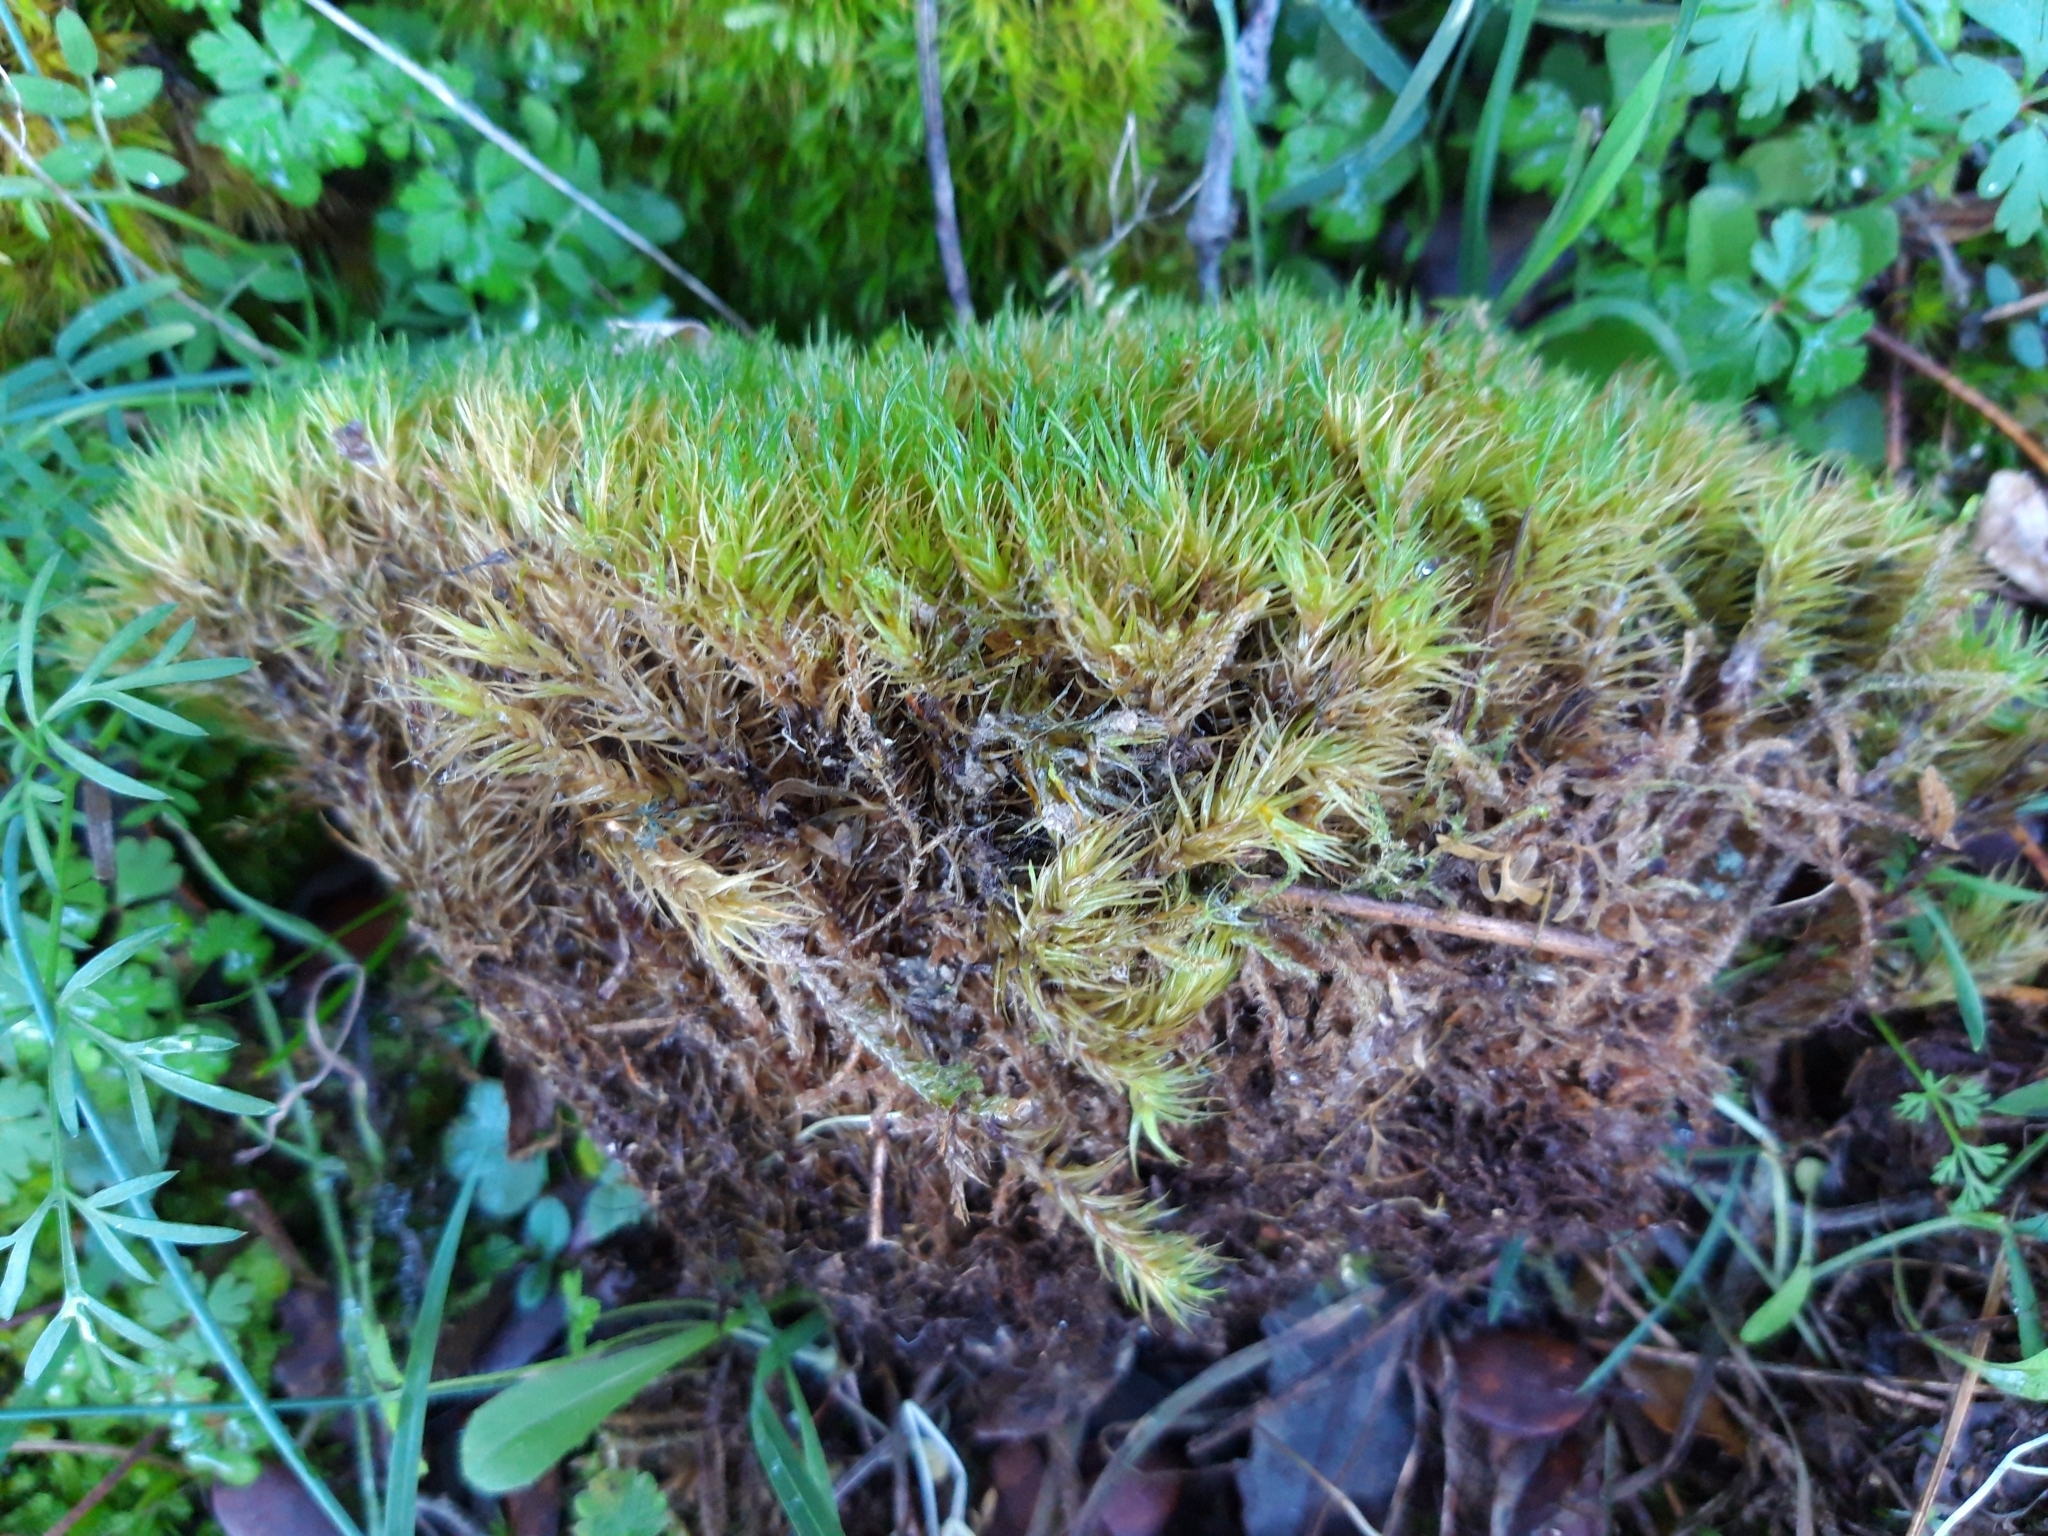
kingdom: Plantae
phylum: Bryophyta
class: Bryopsida
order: Dicranales
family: Dicranaceae
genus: Dicranum
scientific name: Dicranum scoparium
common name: Broom fork-moss
